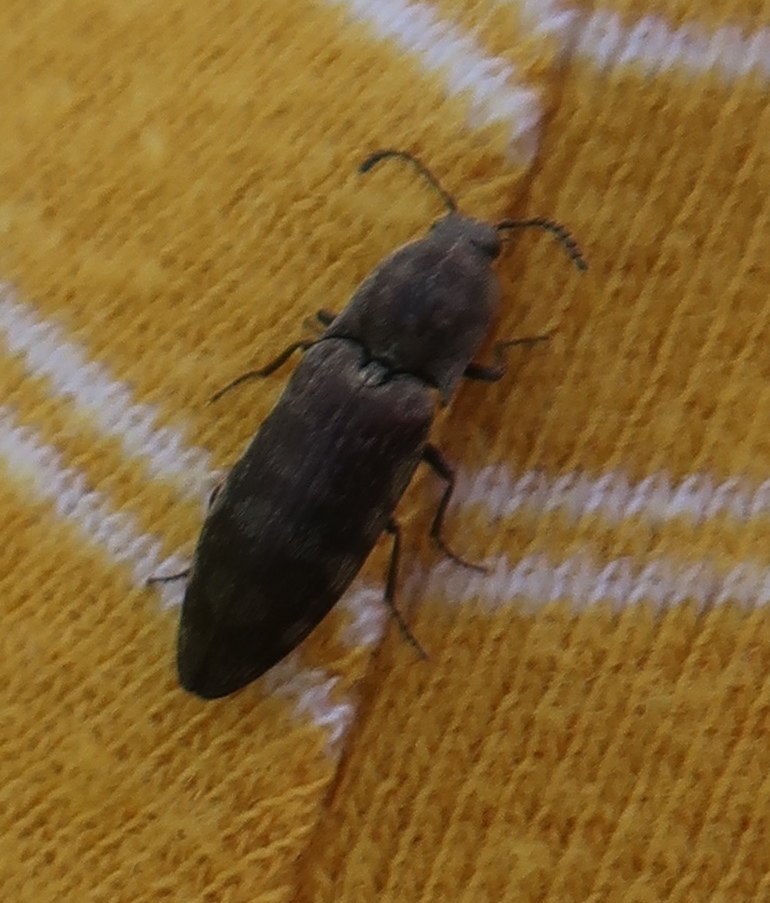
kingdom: Animalia
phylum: Arthropoda
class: Insecta
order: Coleoptera
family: Elateridae
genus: Actenicerus
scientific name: Actenicerus sjaelandicus
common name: Marsh click beetle
